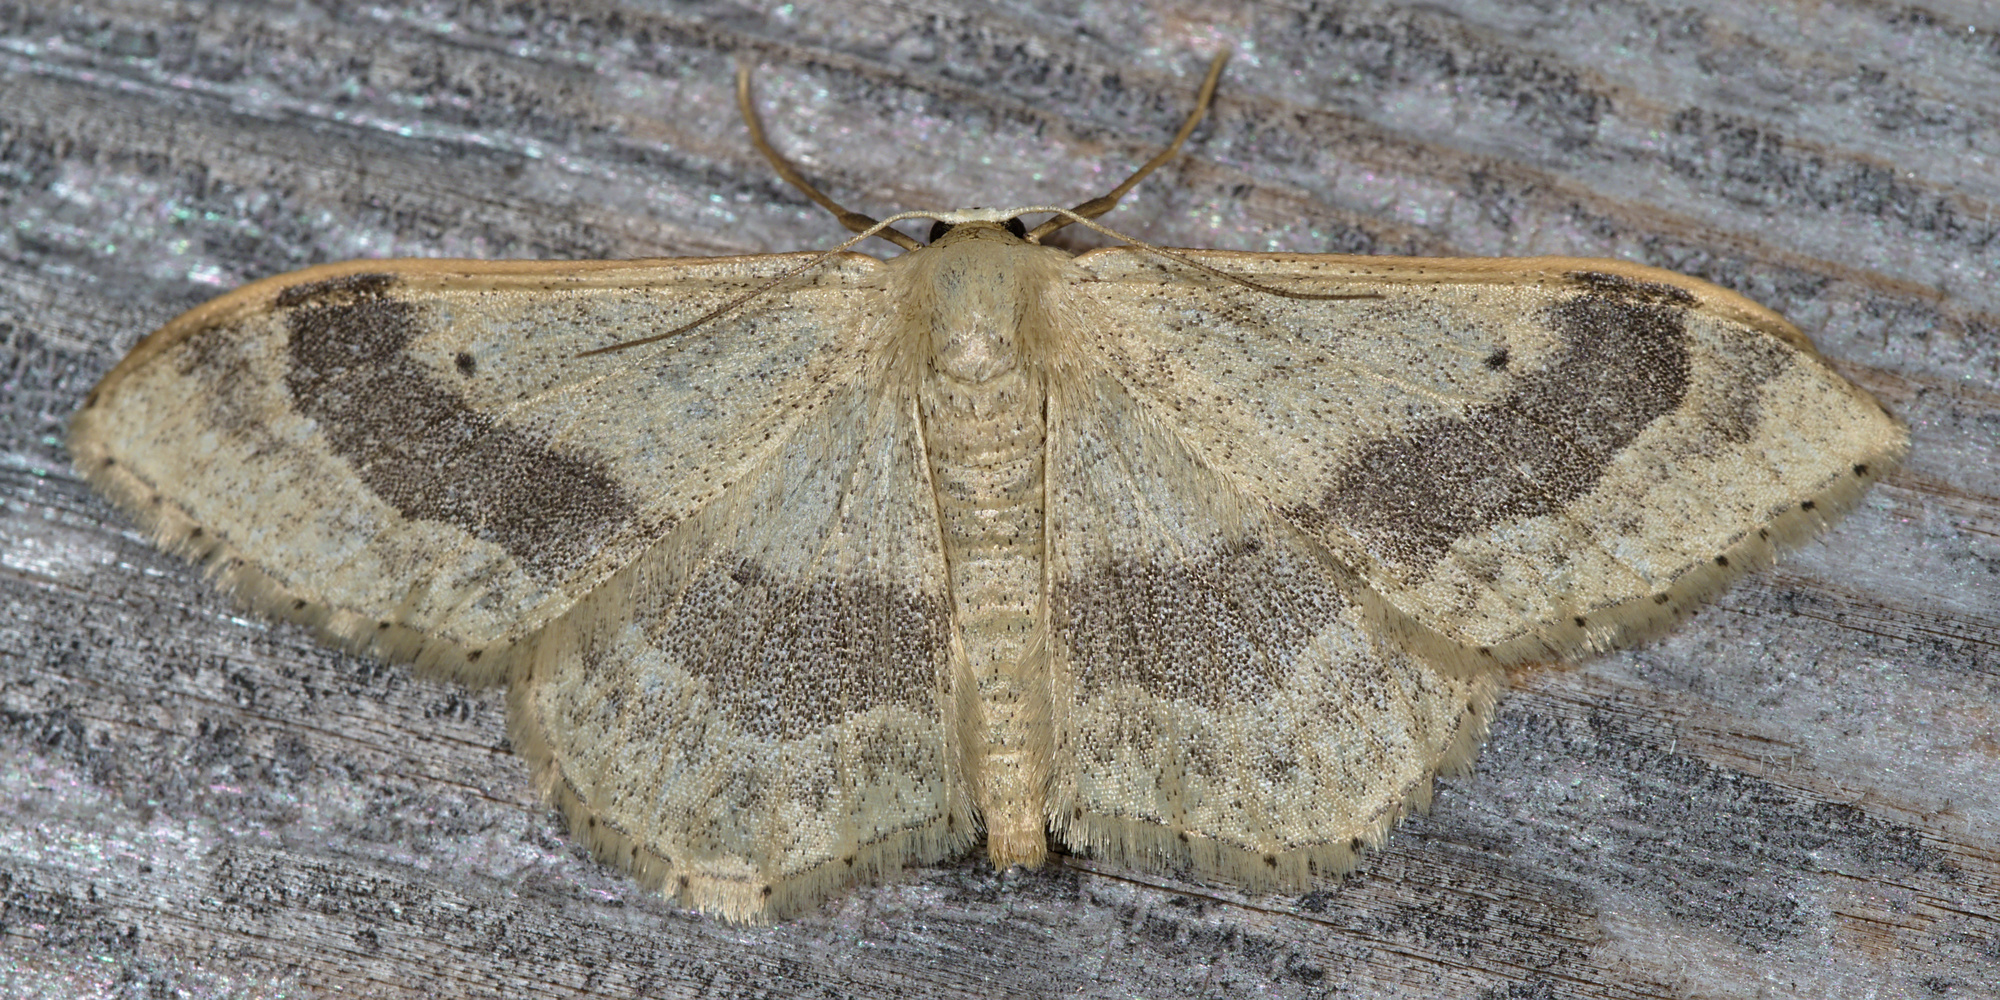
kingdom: Animalia
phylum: Arthropoda
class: Insecta
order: Lepidoptera
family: Geometridae
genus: Idaea
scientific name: Idaea aversata
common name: Riband wave
